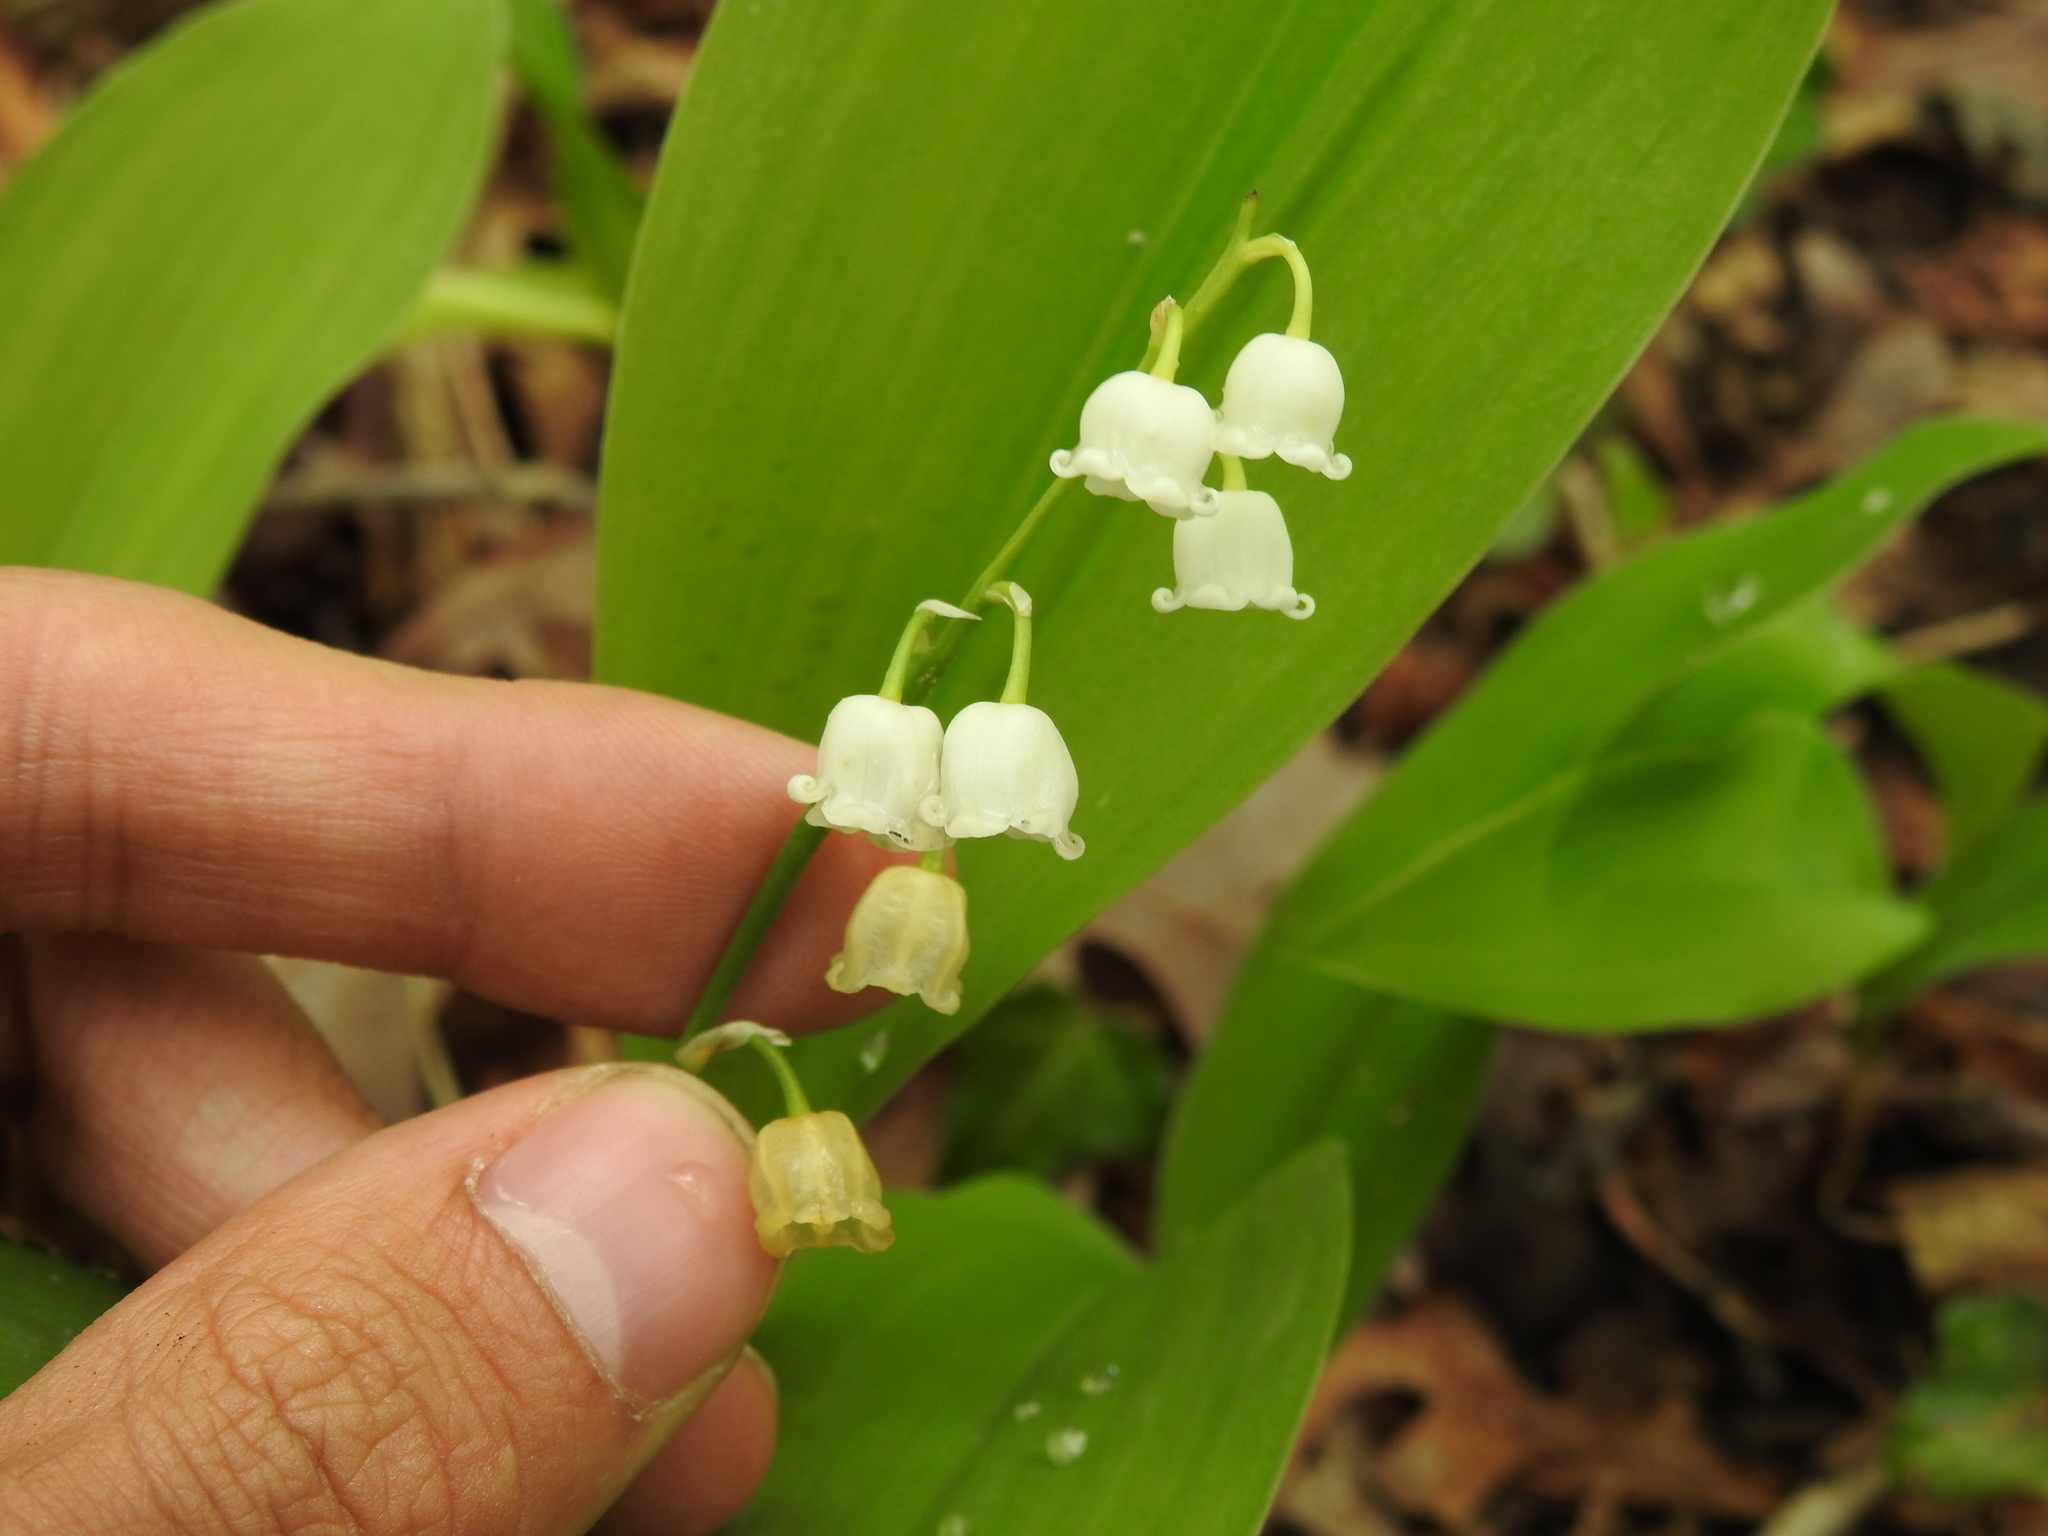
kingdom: Plantae
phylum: Tracheophyta
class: Liliopsida
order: Asparagales
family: Asparagaceae
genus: Convallaria
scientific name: Convallaria majalis
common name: Lily-of-the-valley
